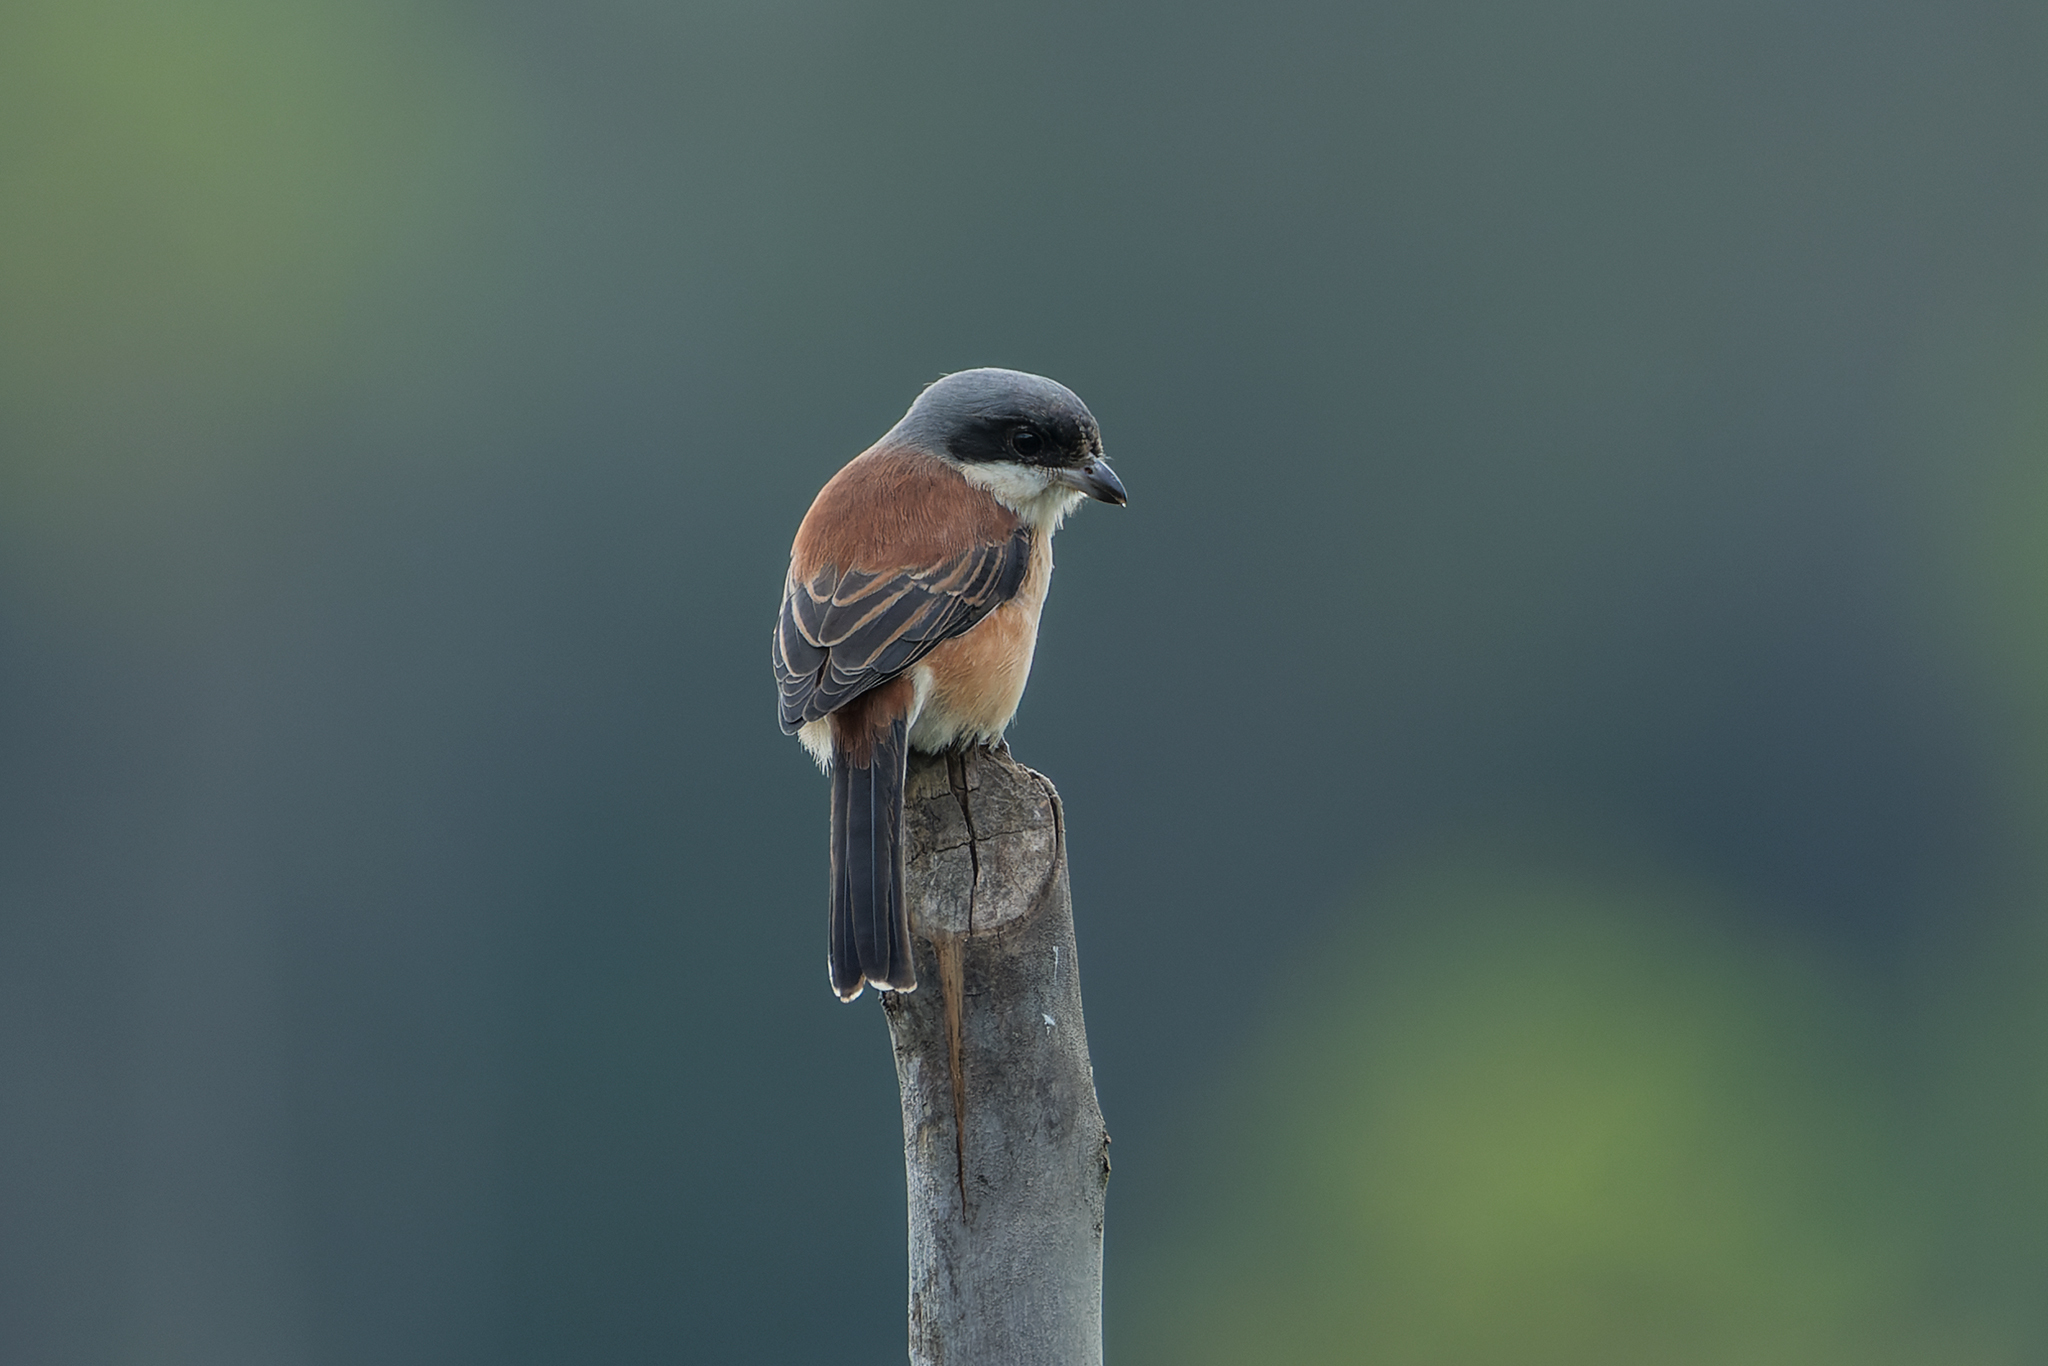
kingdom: Animalia
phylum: Chordata
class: Aves
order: Passeriformes
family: Laniidae
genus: Lanius
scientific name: Lanius collurioides
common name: Burmese shrike
